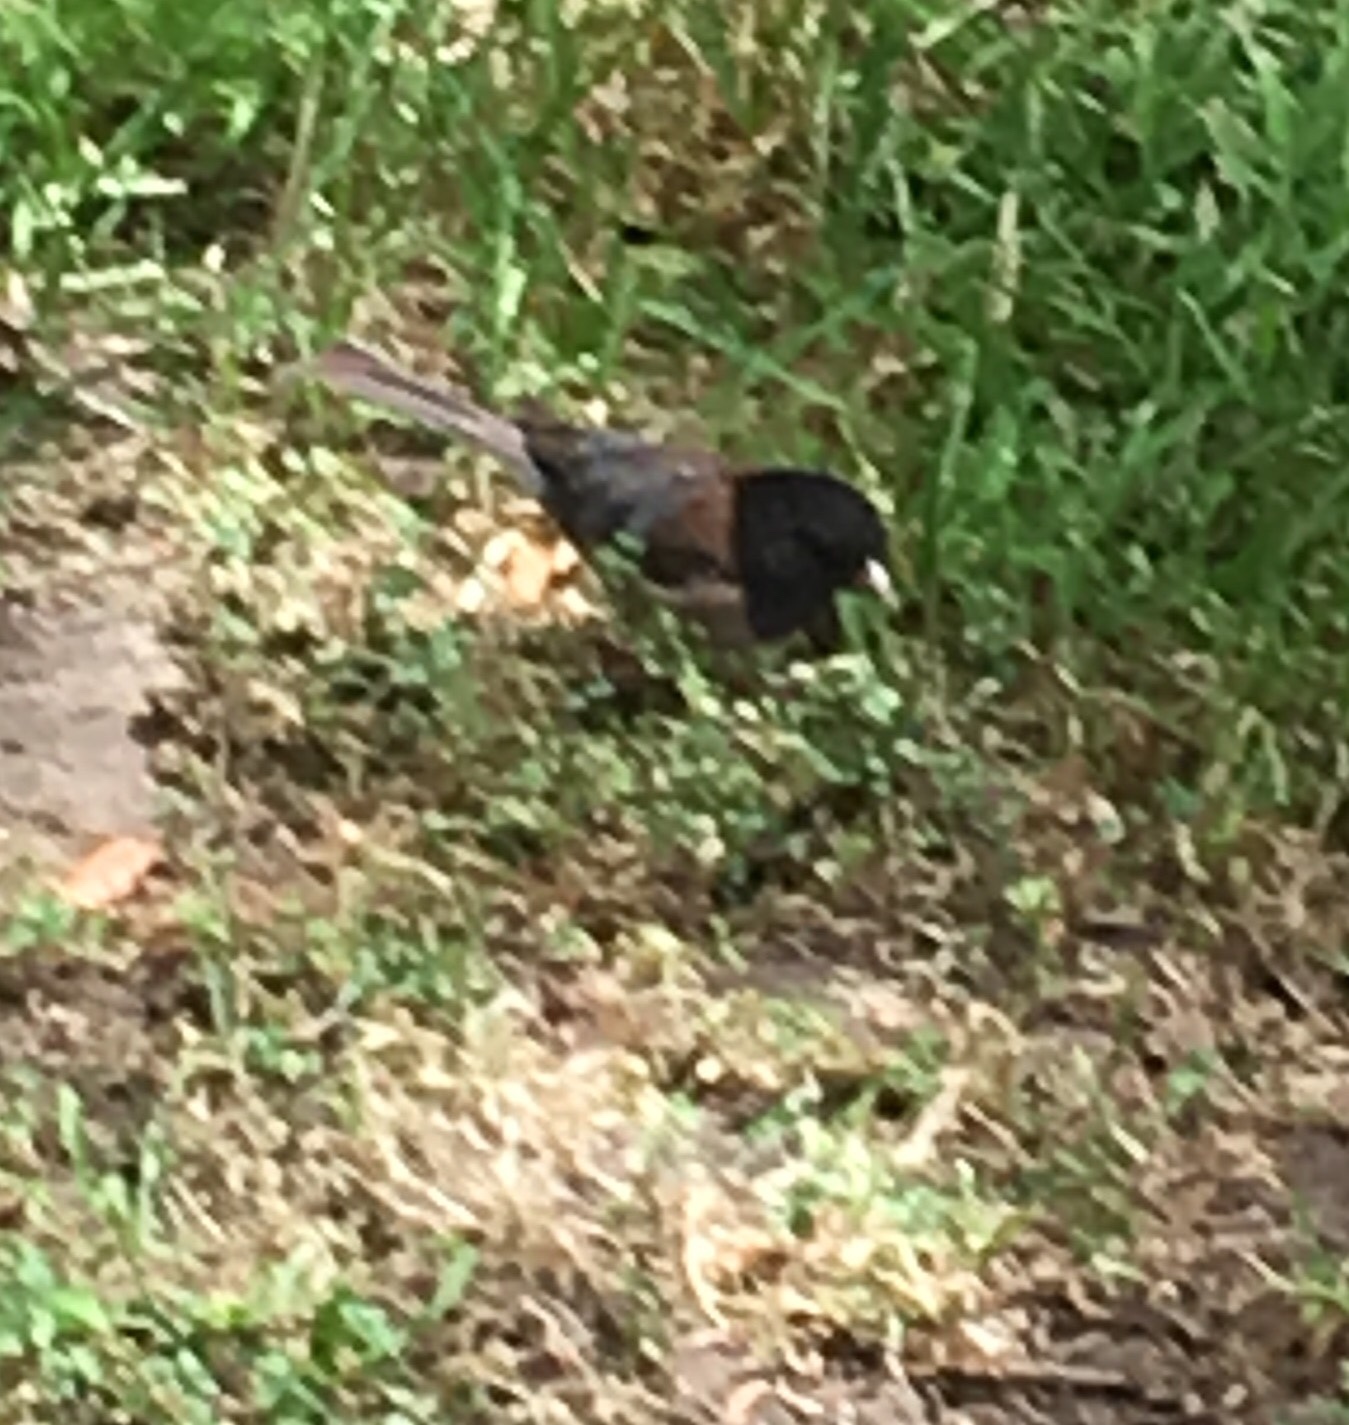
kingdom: Animalia
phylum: Chordata
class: Aves
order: Passeriformes
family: Passerellidae
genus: Junco
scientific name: Junco hyemalis
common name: Dark-eyed junco
